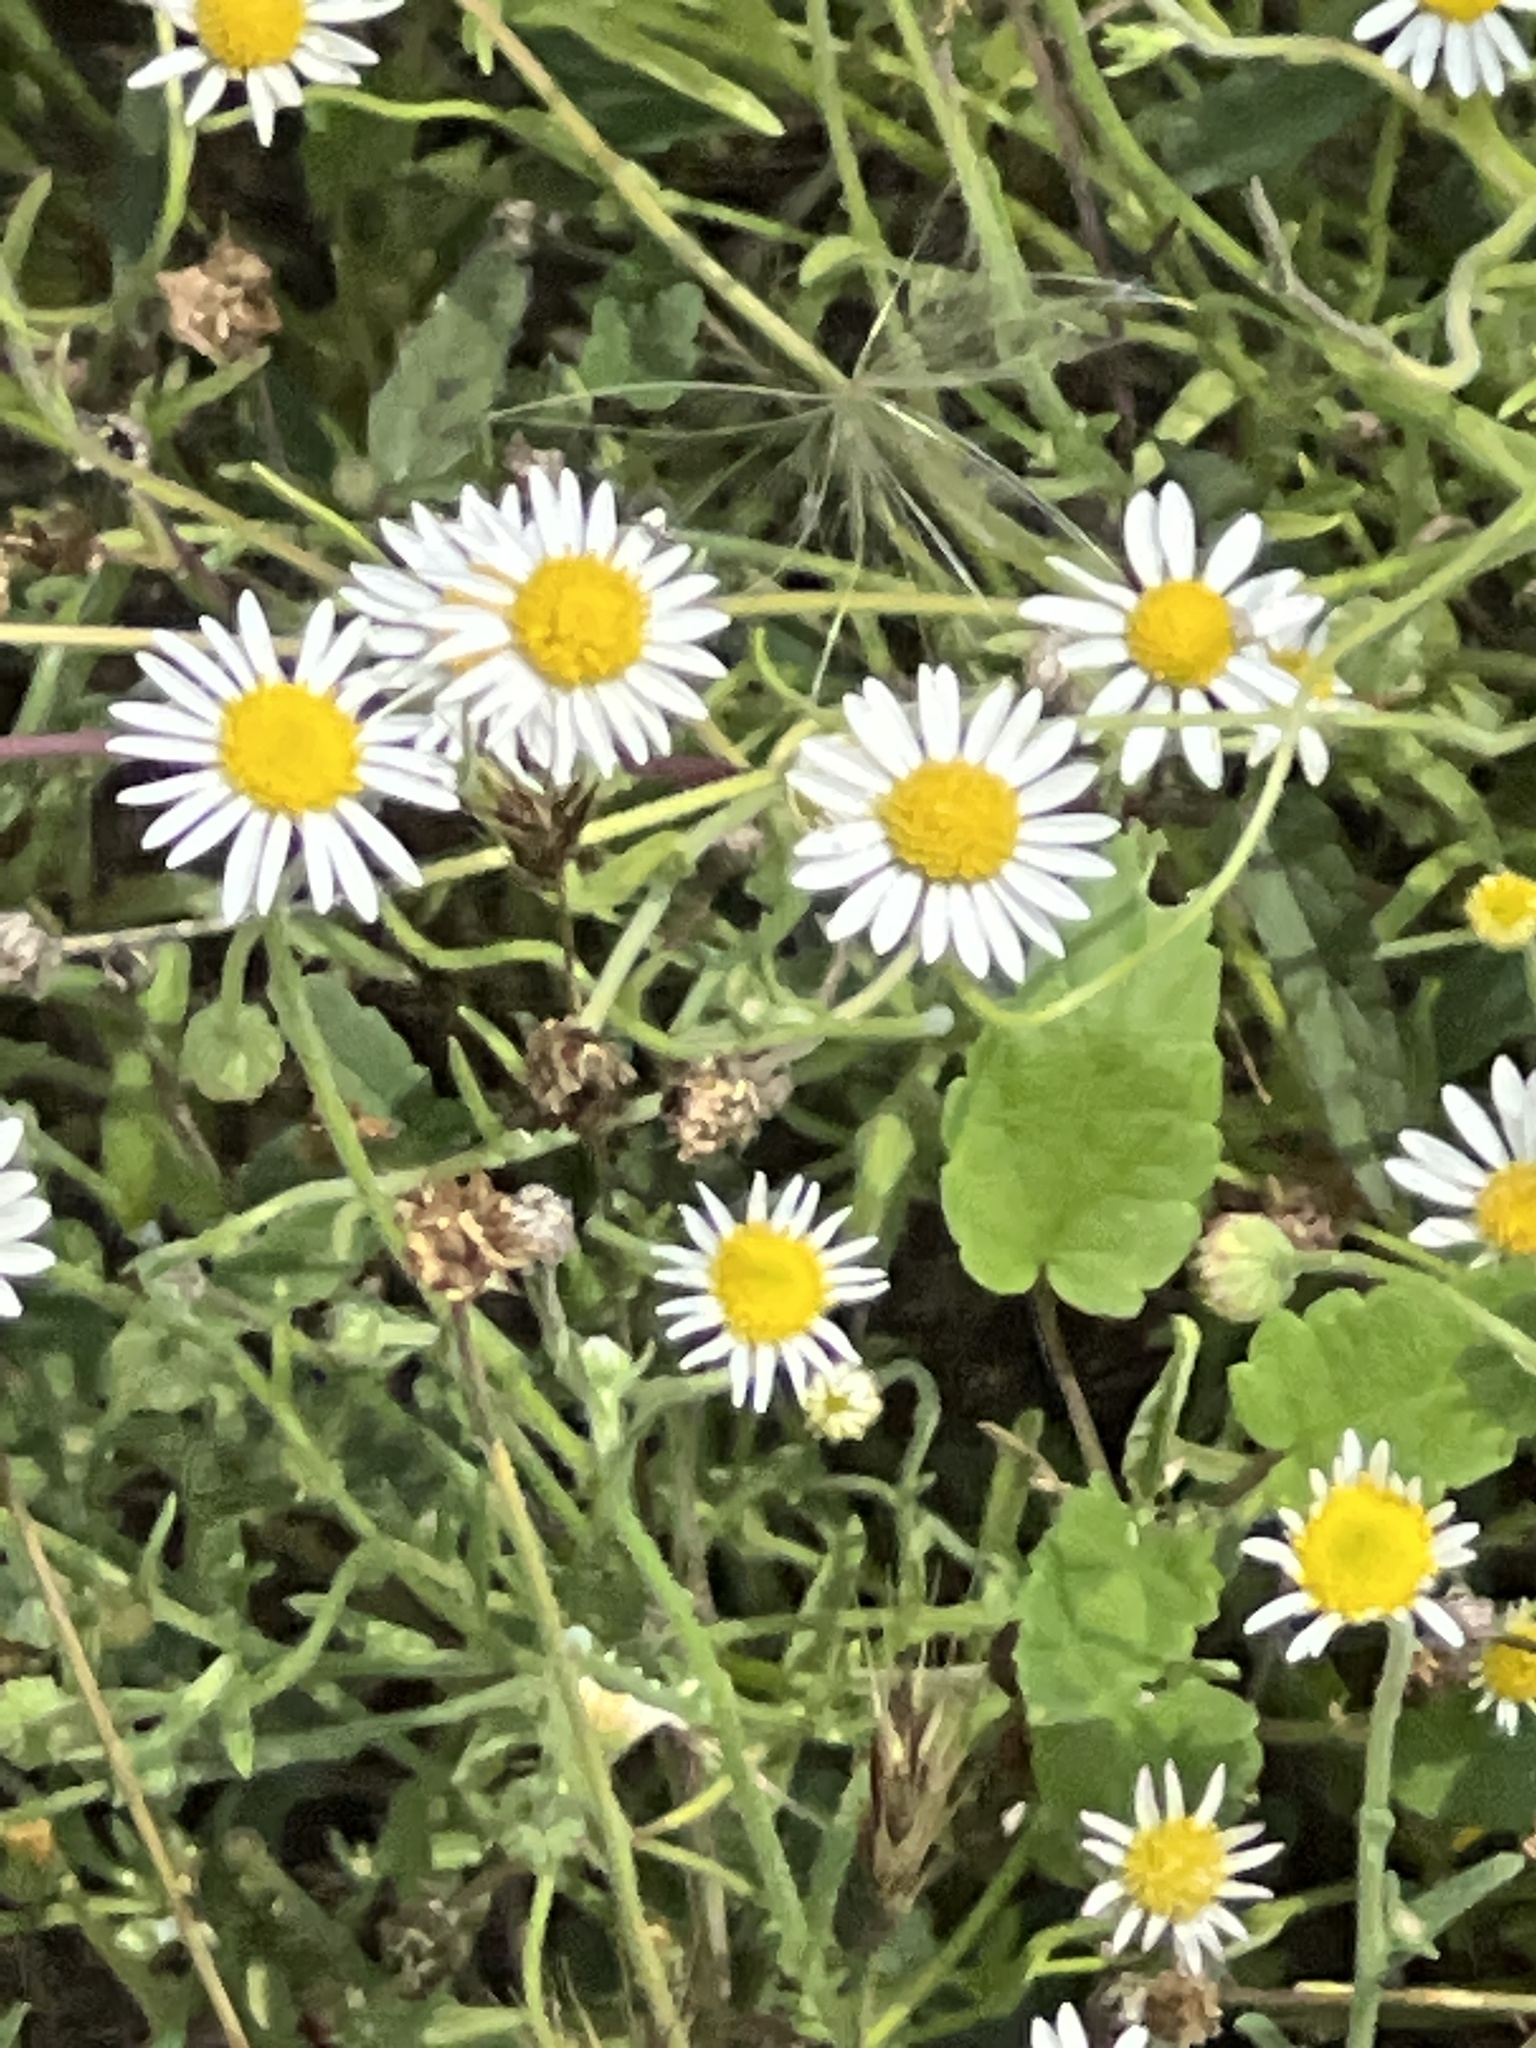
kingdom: Plantae
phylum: Tracheophyta
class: Magnoliopsida
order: Asterales
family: Asteraceae
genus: Aphanostephus
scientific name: Aphanostephus ramosissimus
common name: Plains lazy daisy
